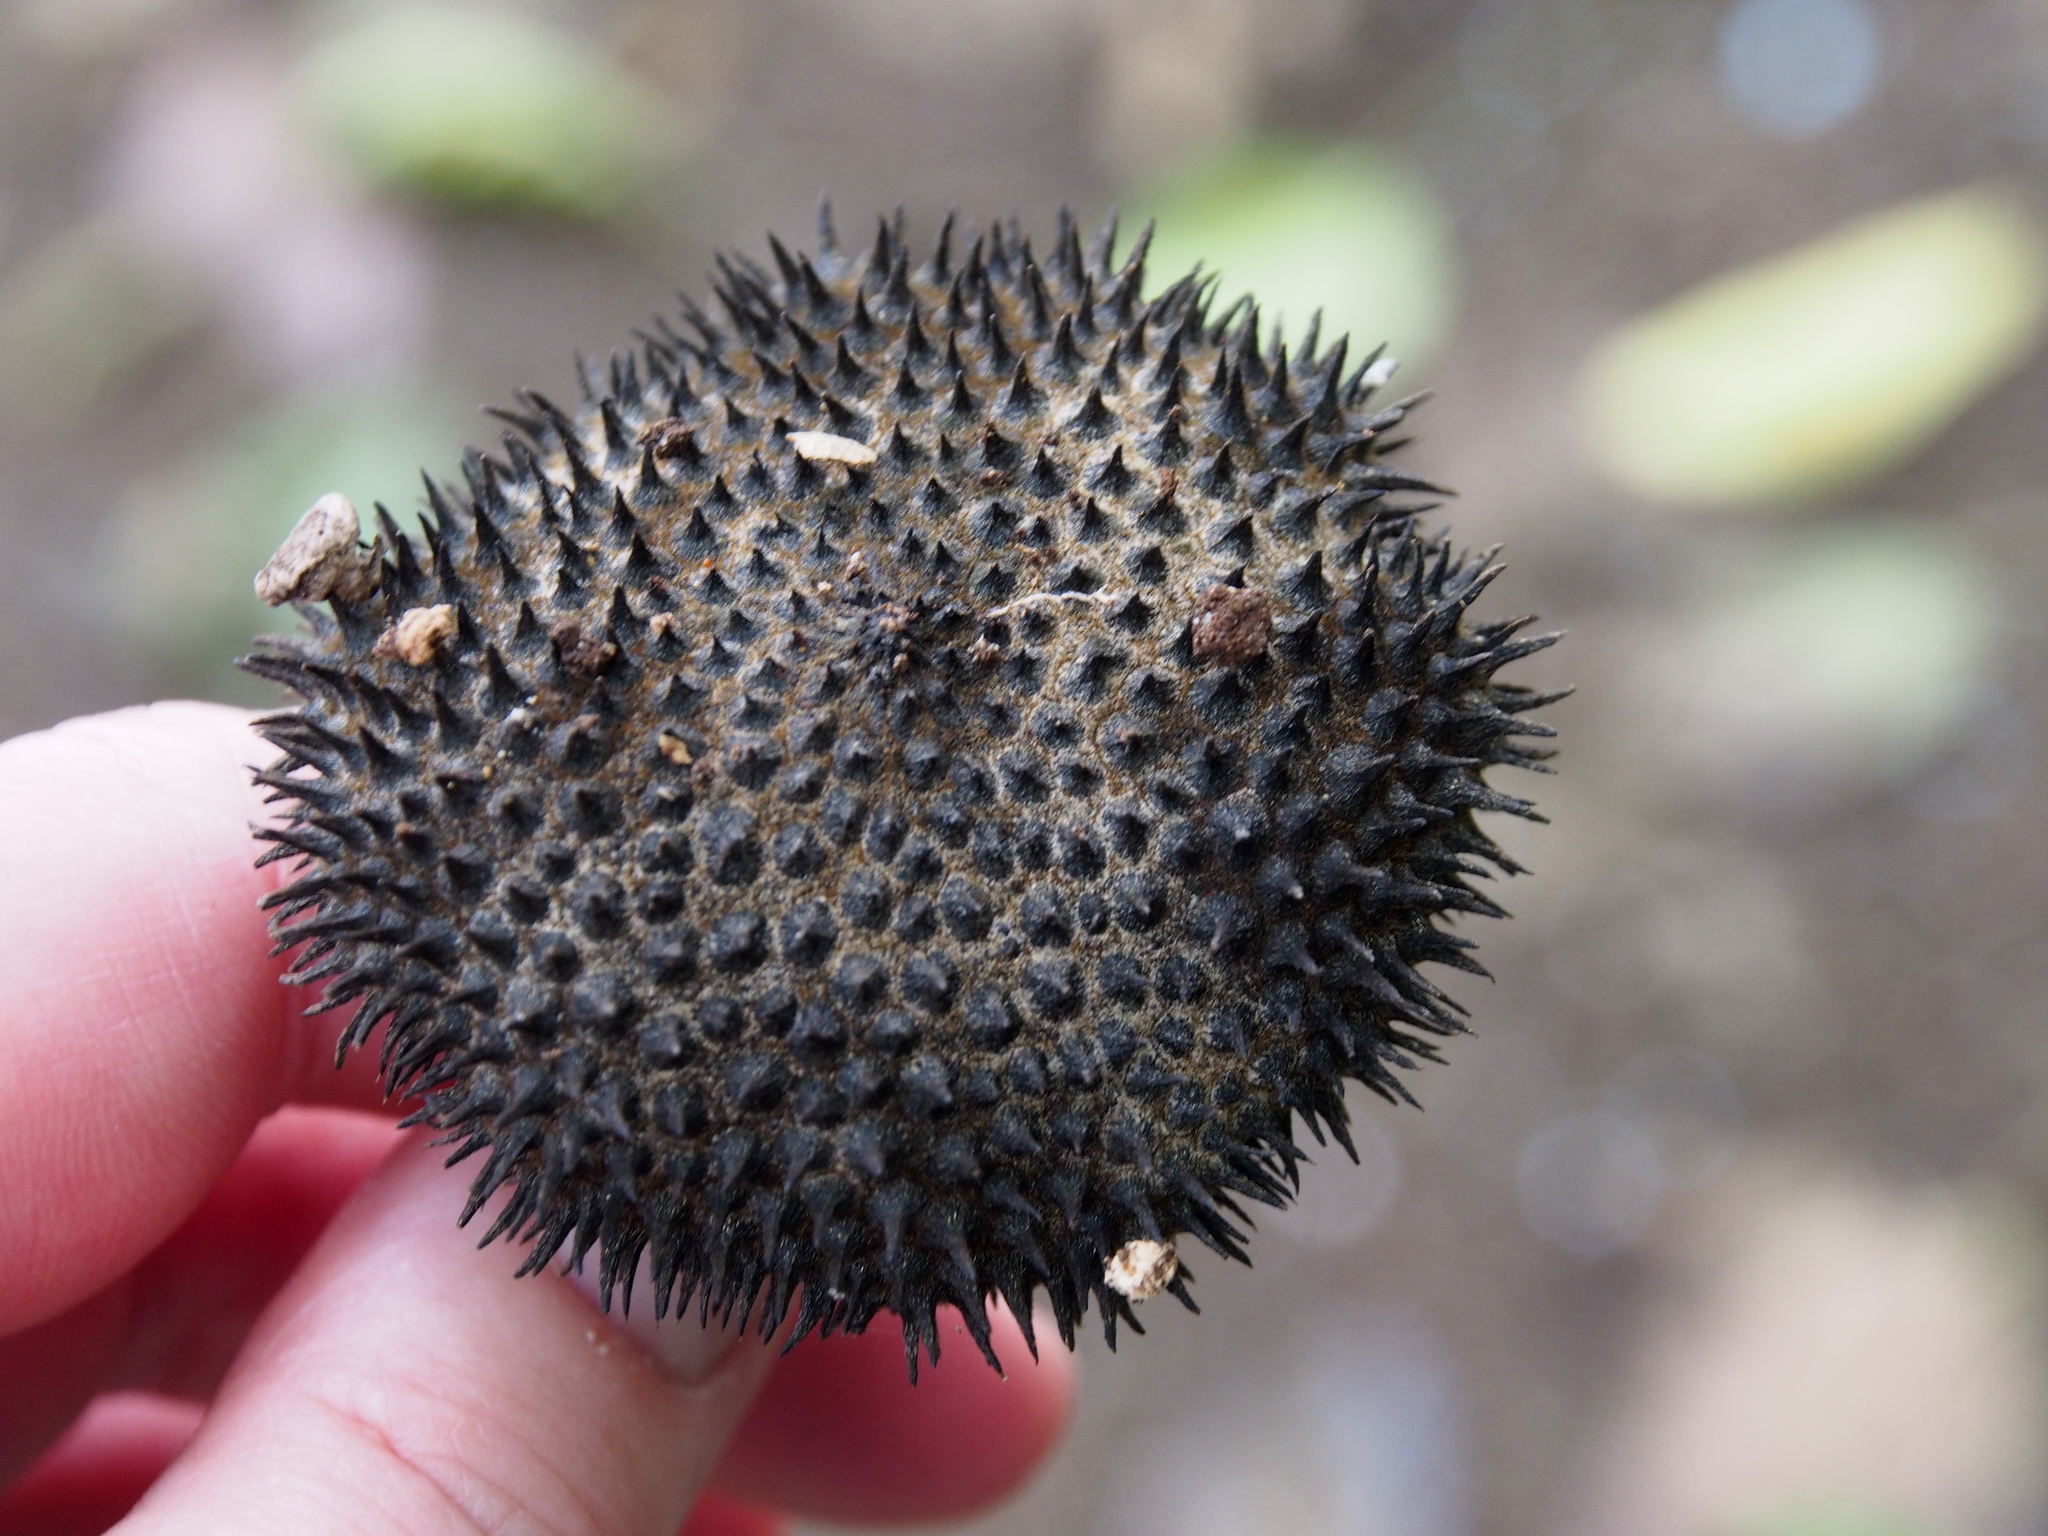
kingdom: Plantae
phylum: Tracheophyta
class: Magnoliopsida
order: Malvales
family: Malvaceae
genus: Apeiba
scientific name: Apeiba membranacea
